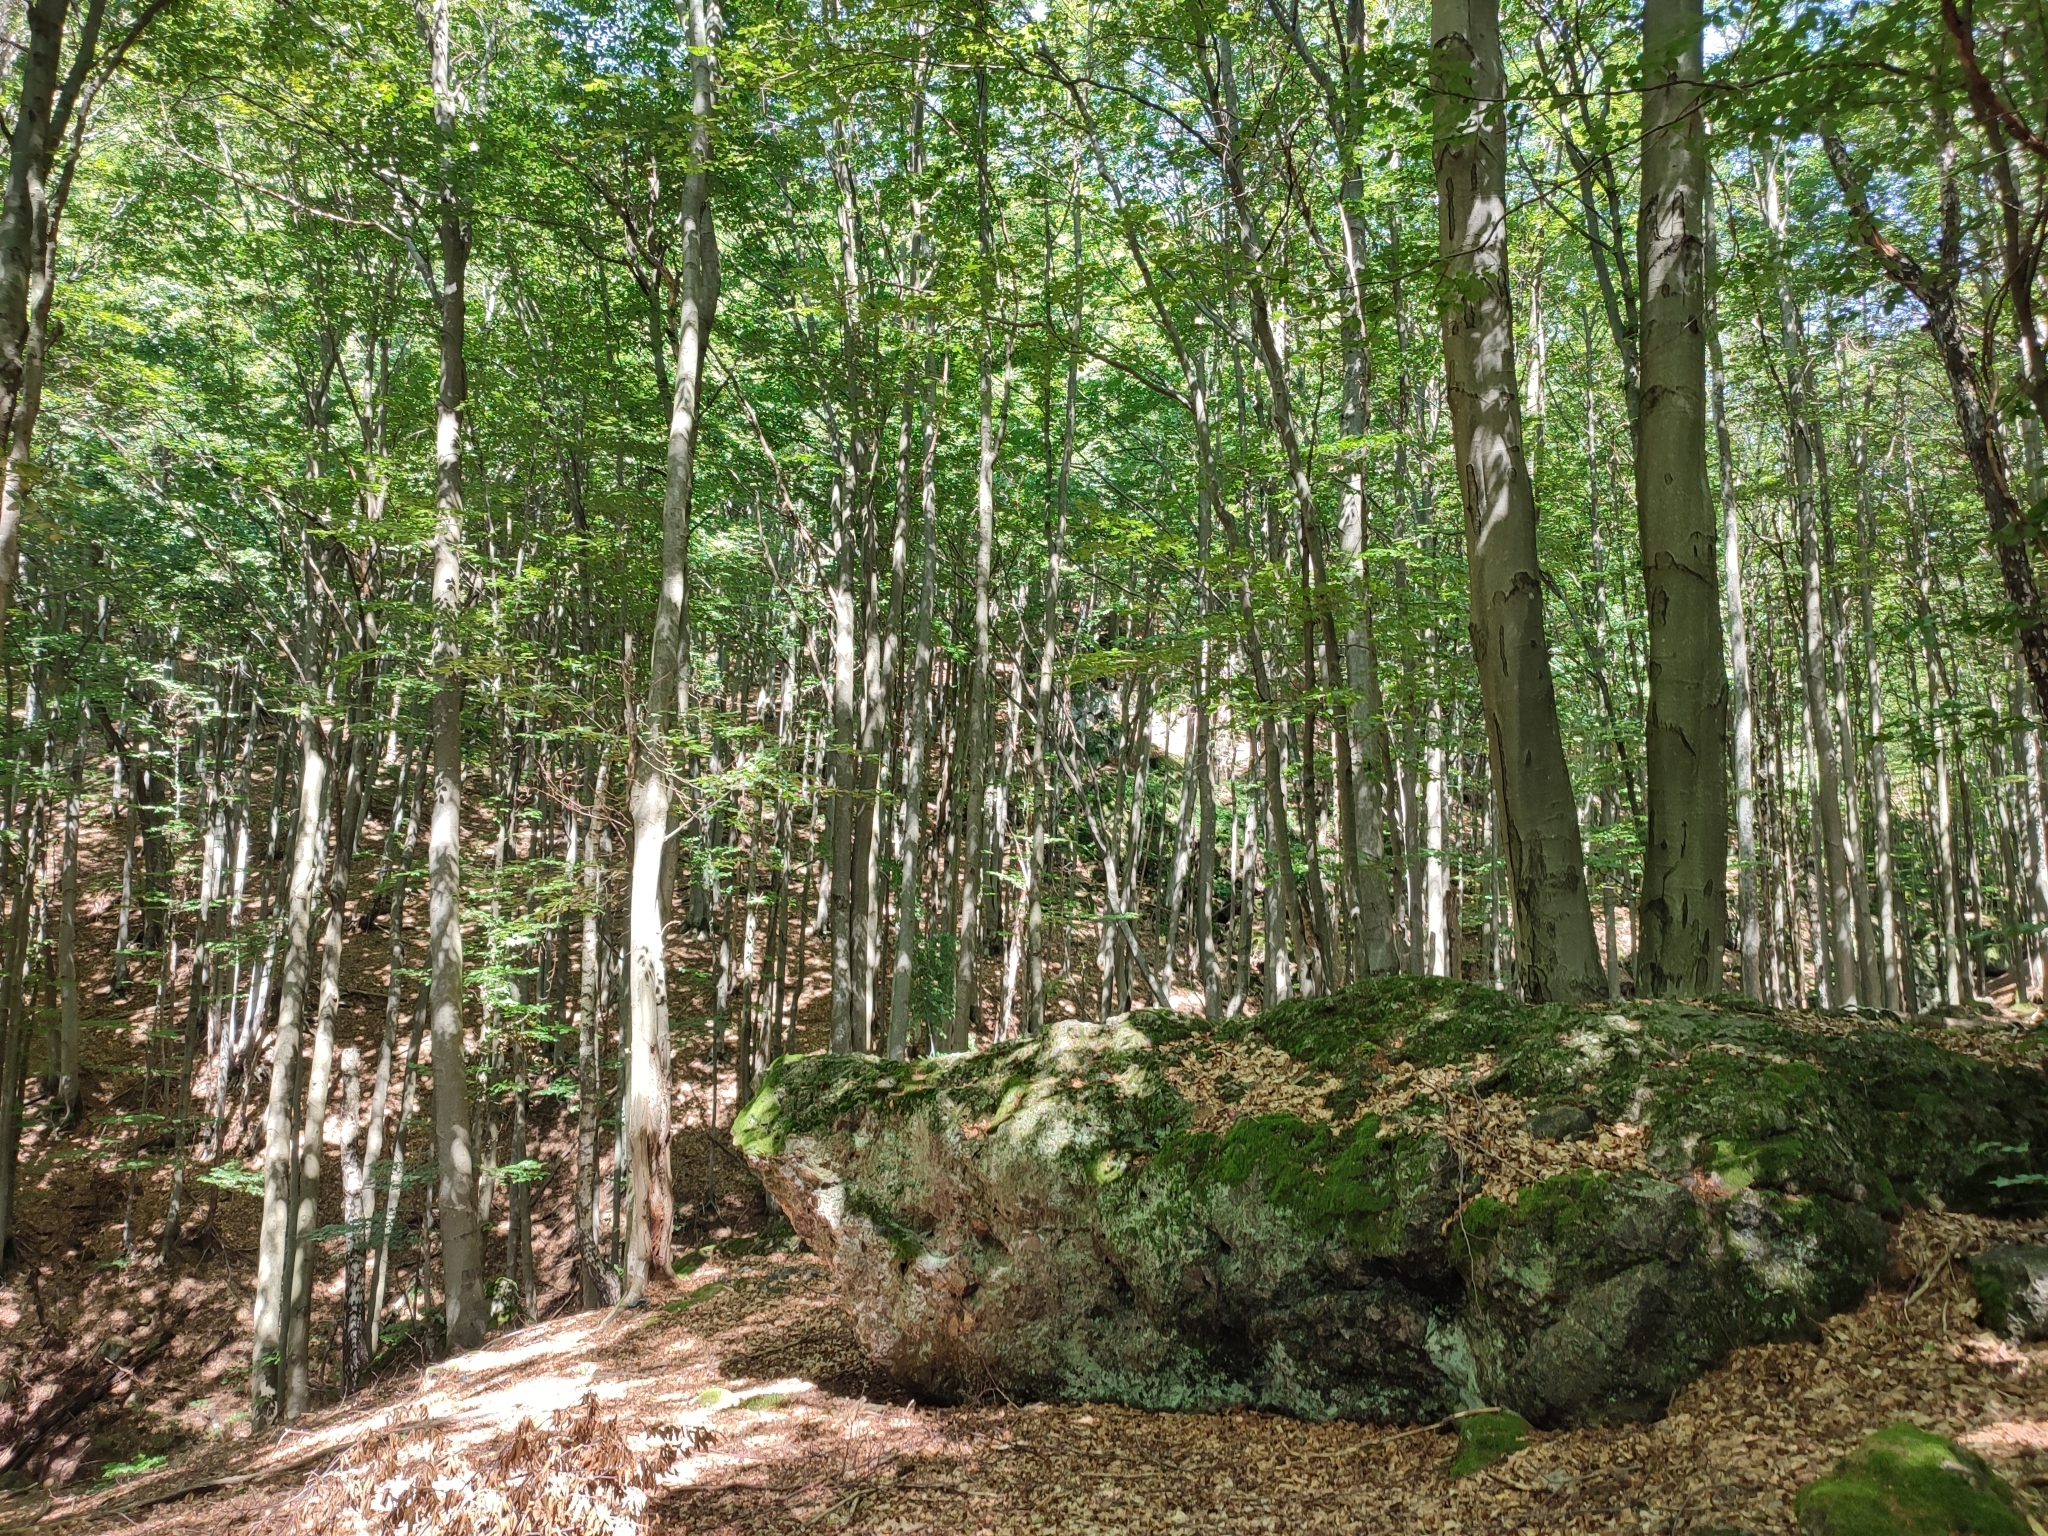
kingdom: Plantae
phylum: Tracheophyta
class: Magnoliopsida
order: Fagales
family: Fagaceae
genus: Fagus
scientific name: Fagus sylvatica
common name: Beech
